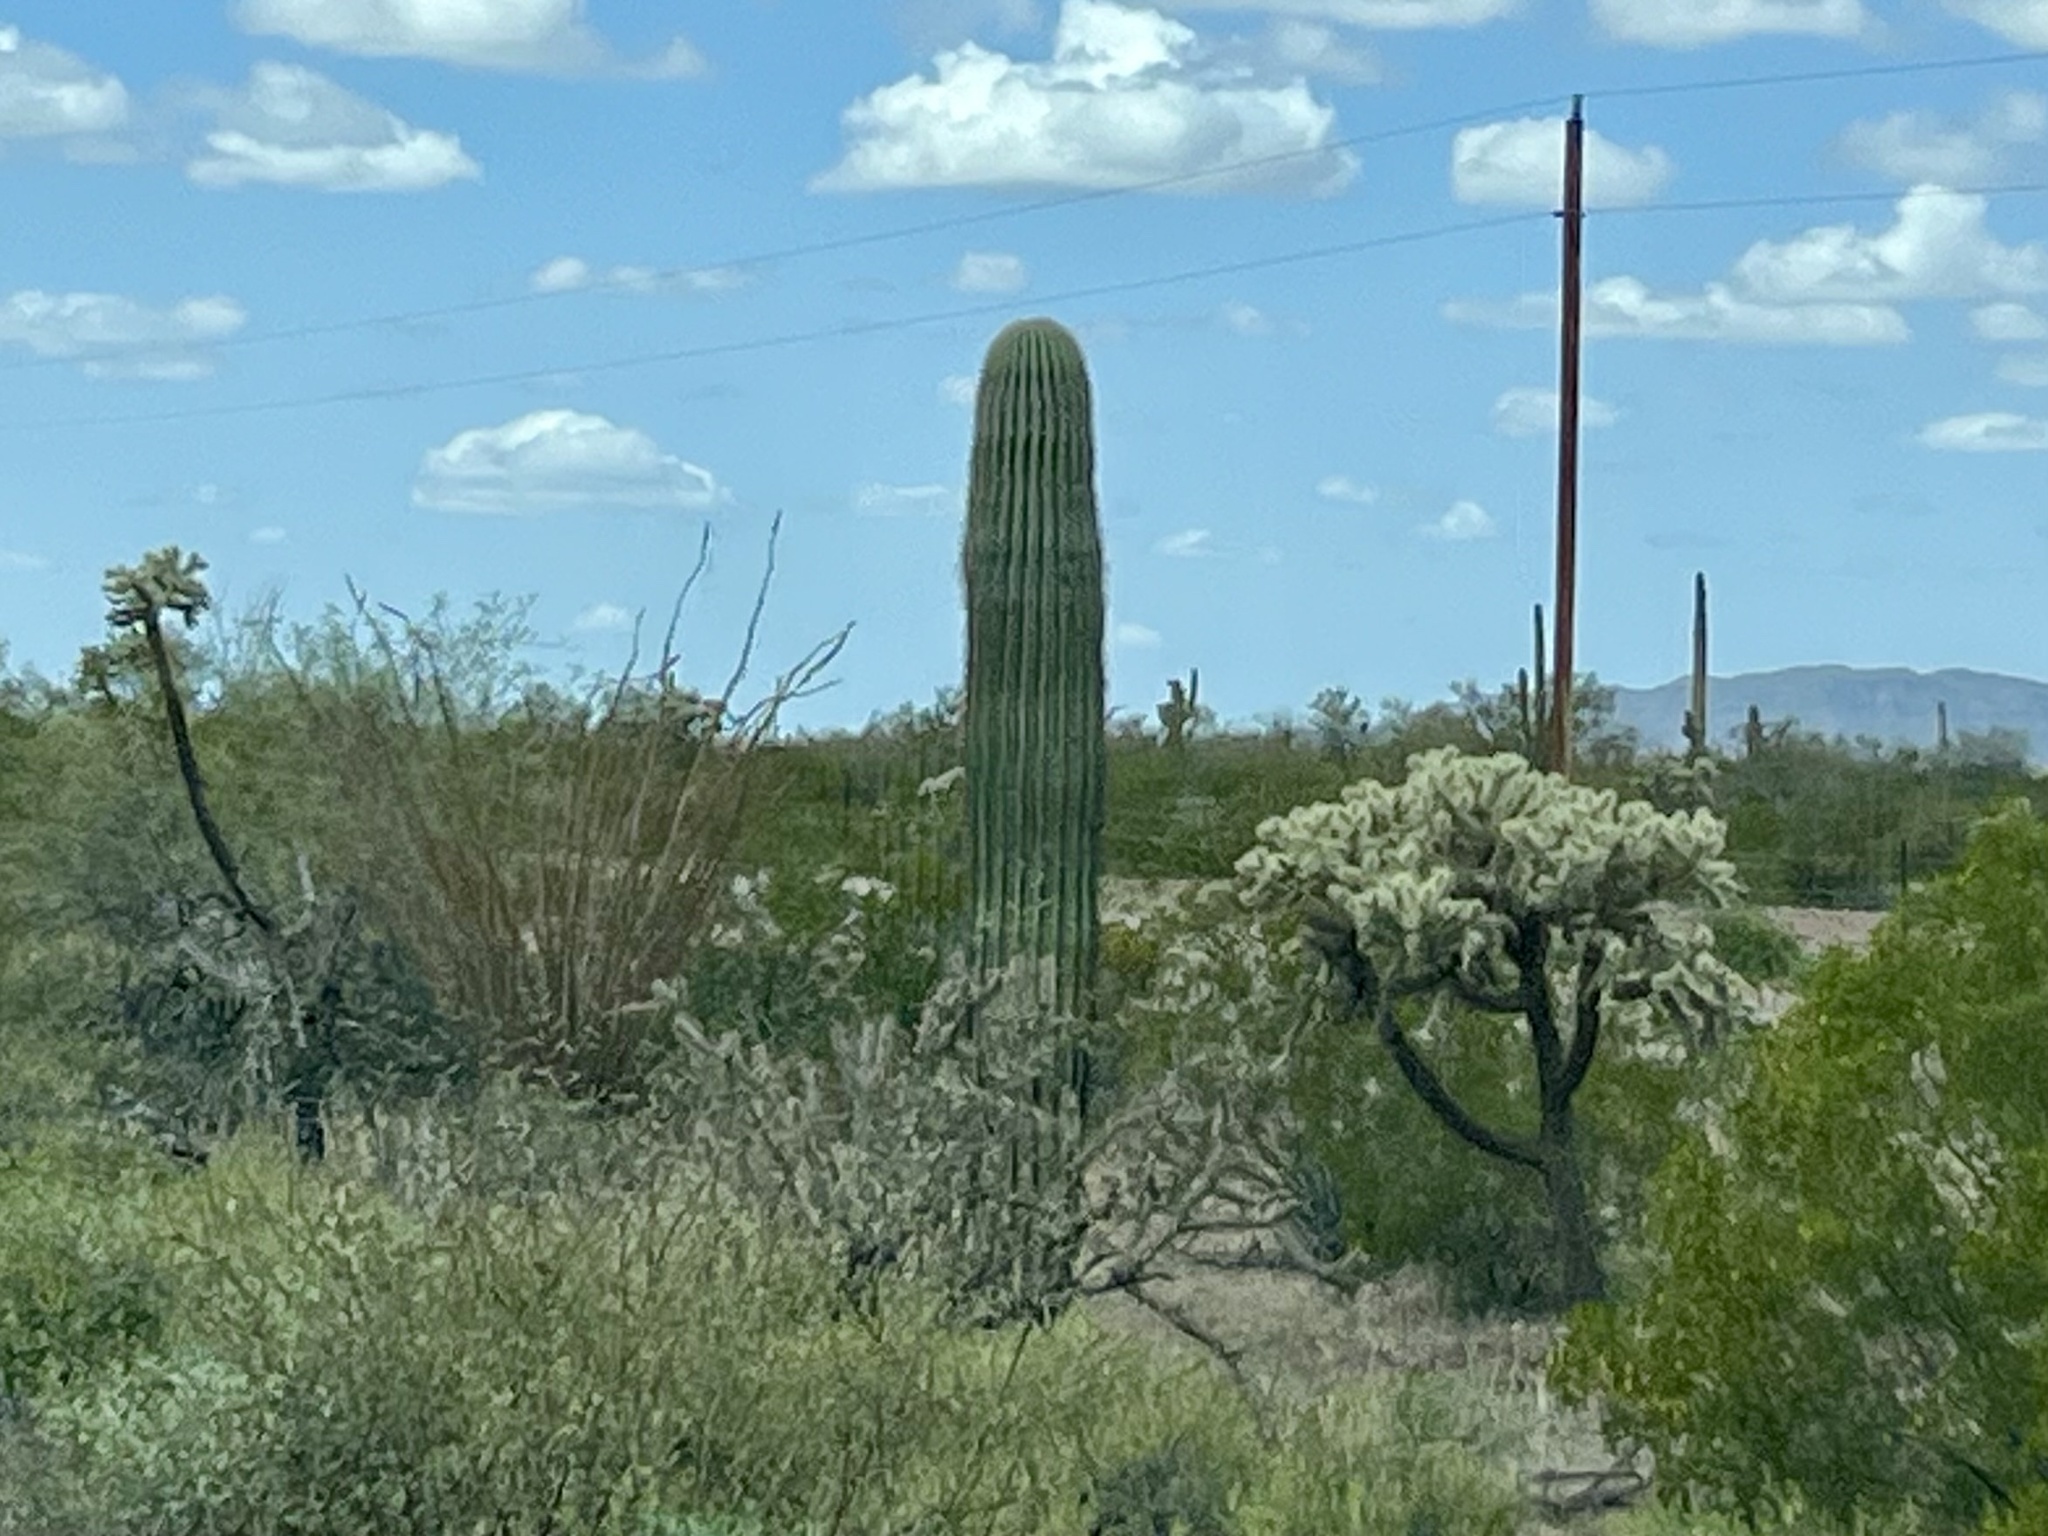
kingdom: Plantae
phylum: Tracheophyta
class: Magnoliopsida
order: Caryophyllales
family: Cactaceae
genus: Carnegiea
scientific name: Carnegiea gigantea
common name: Saguaro
